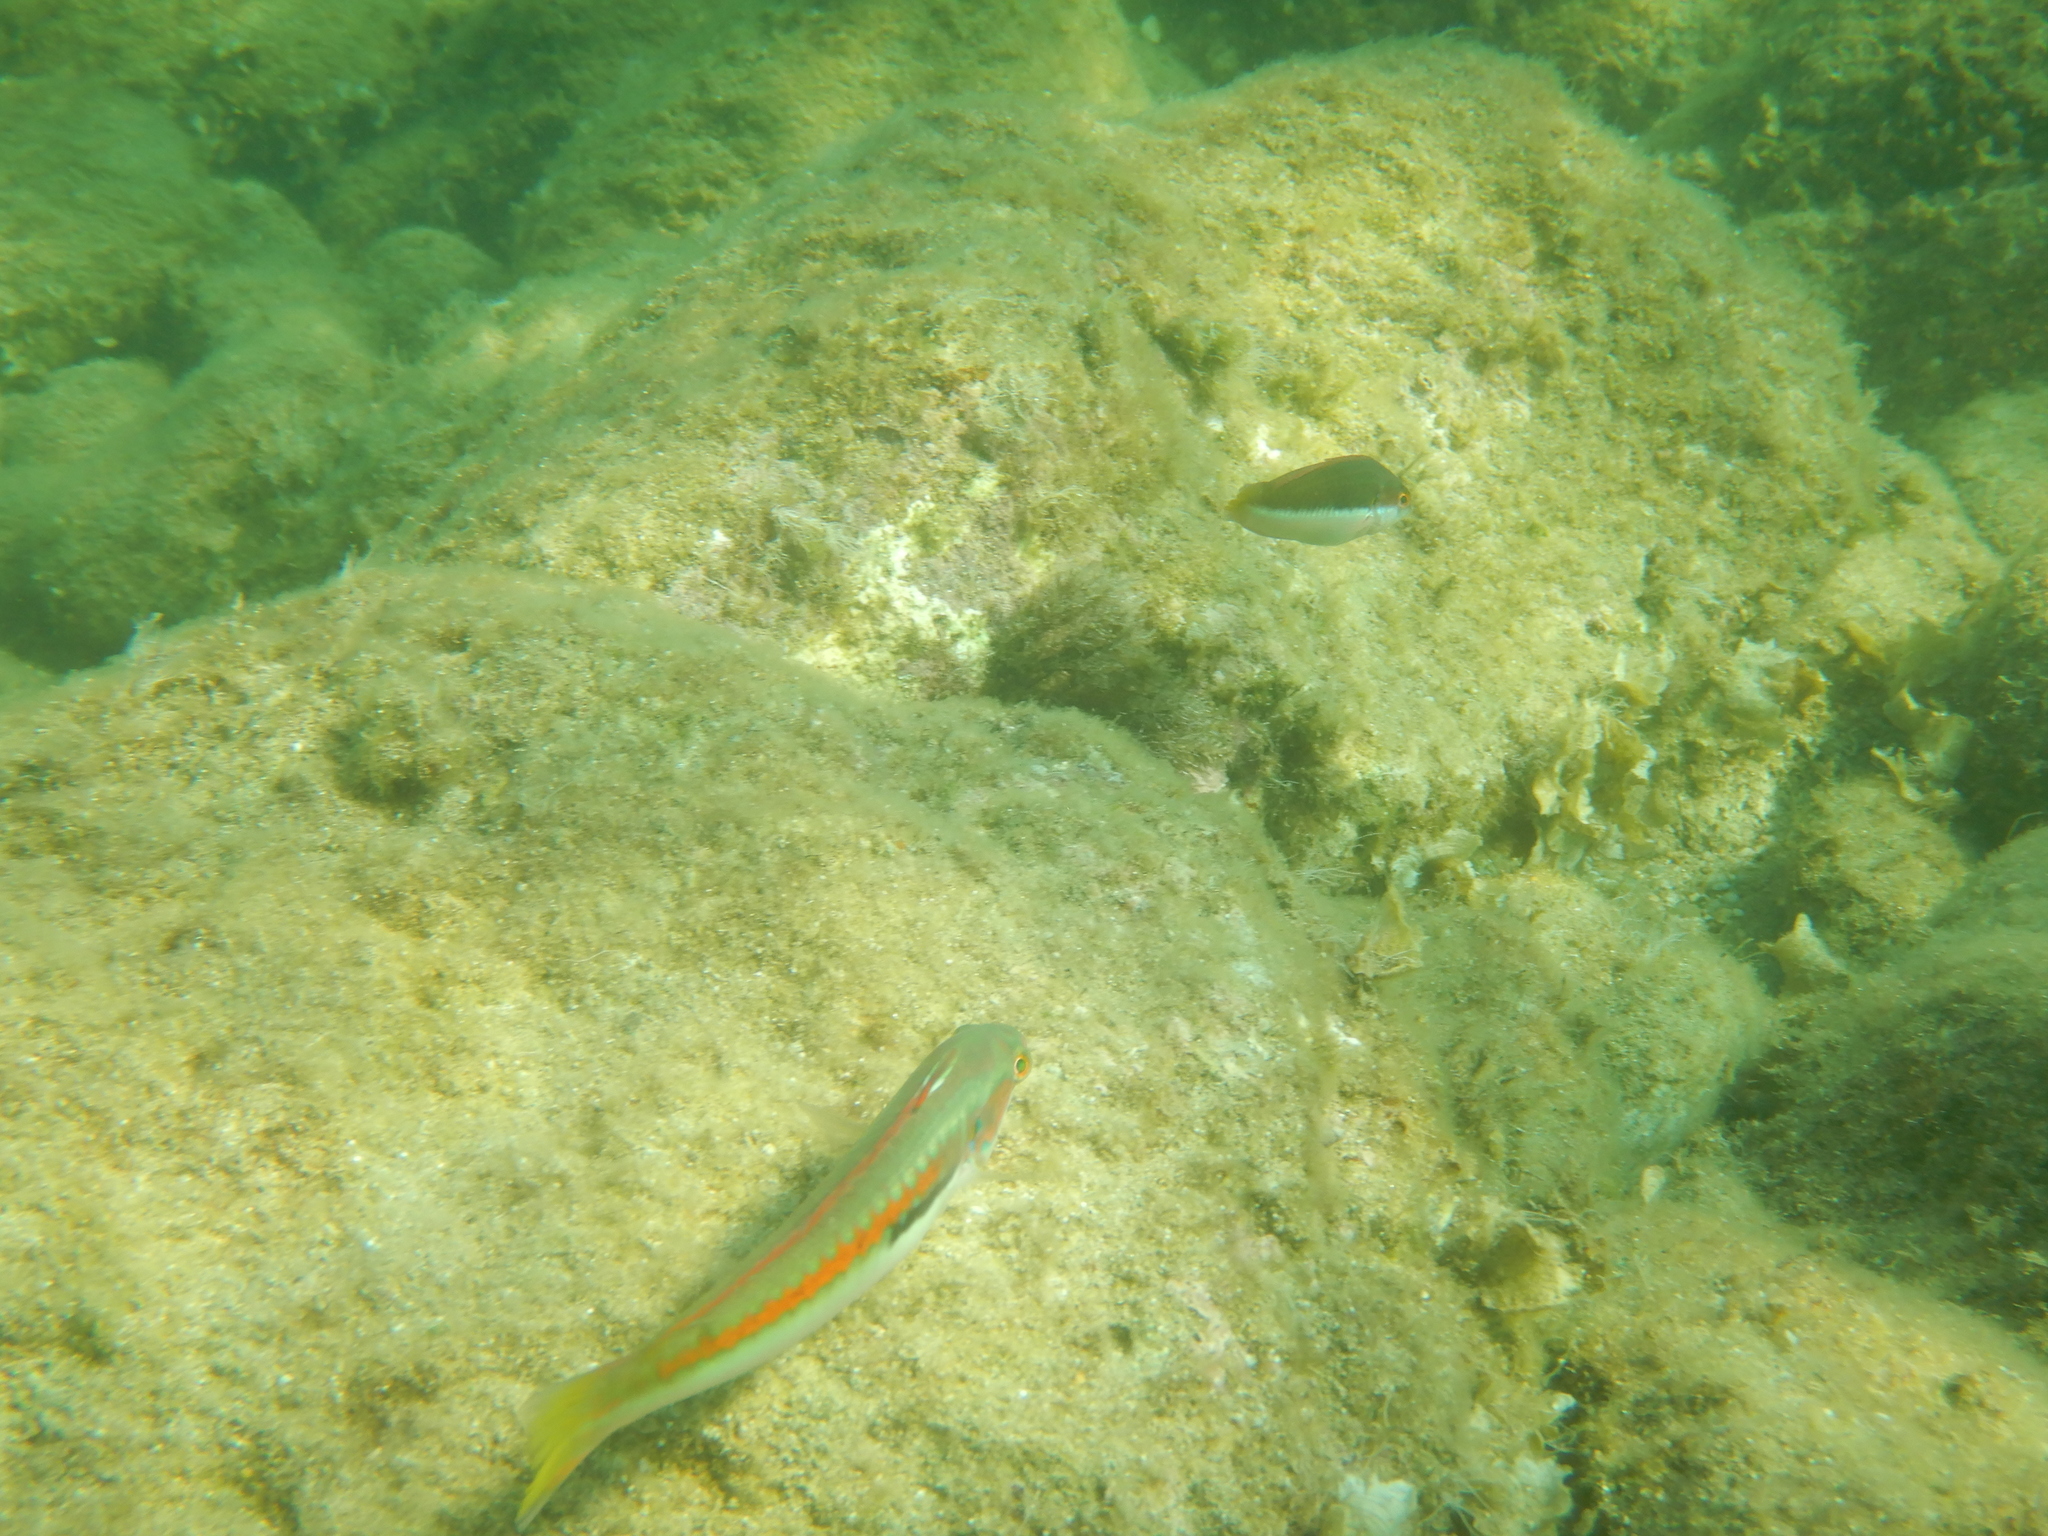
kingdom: Animalia
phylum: Chordata
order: Perciformes
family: Labridae
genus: Coris
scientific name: Coris julis
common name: Rainbow wrasse
